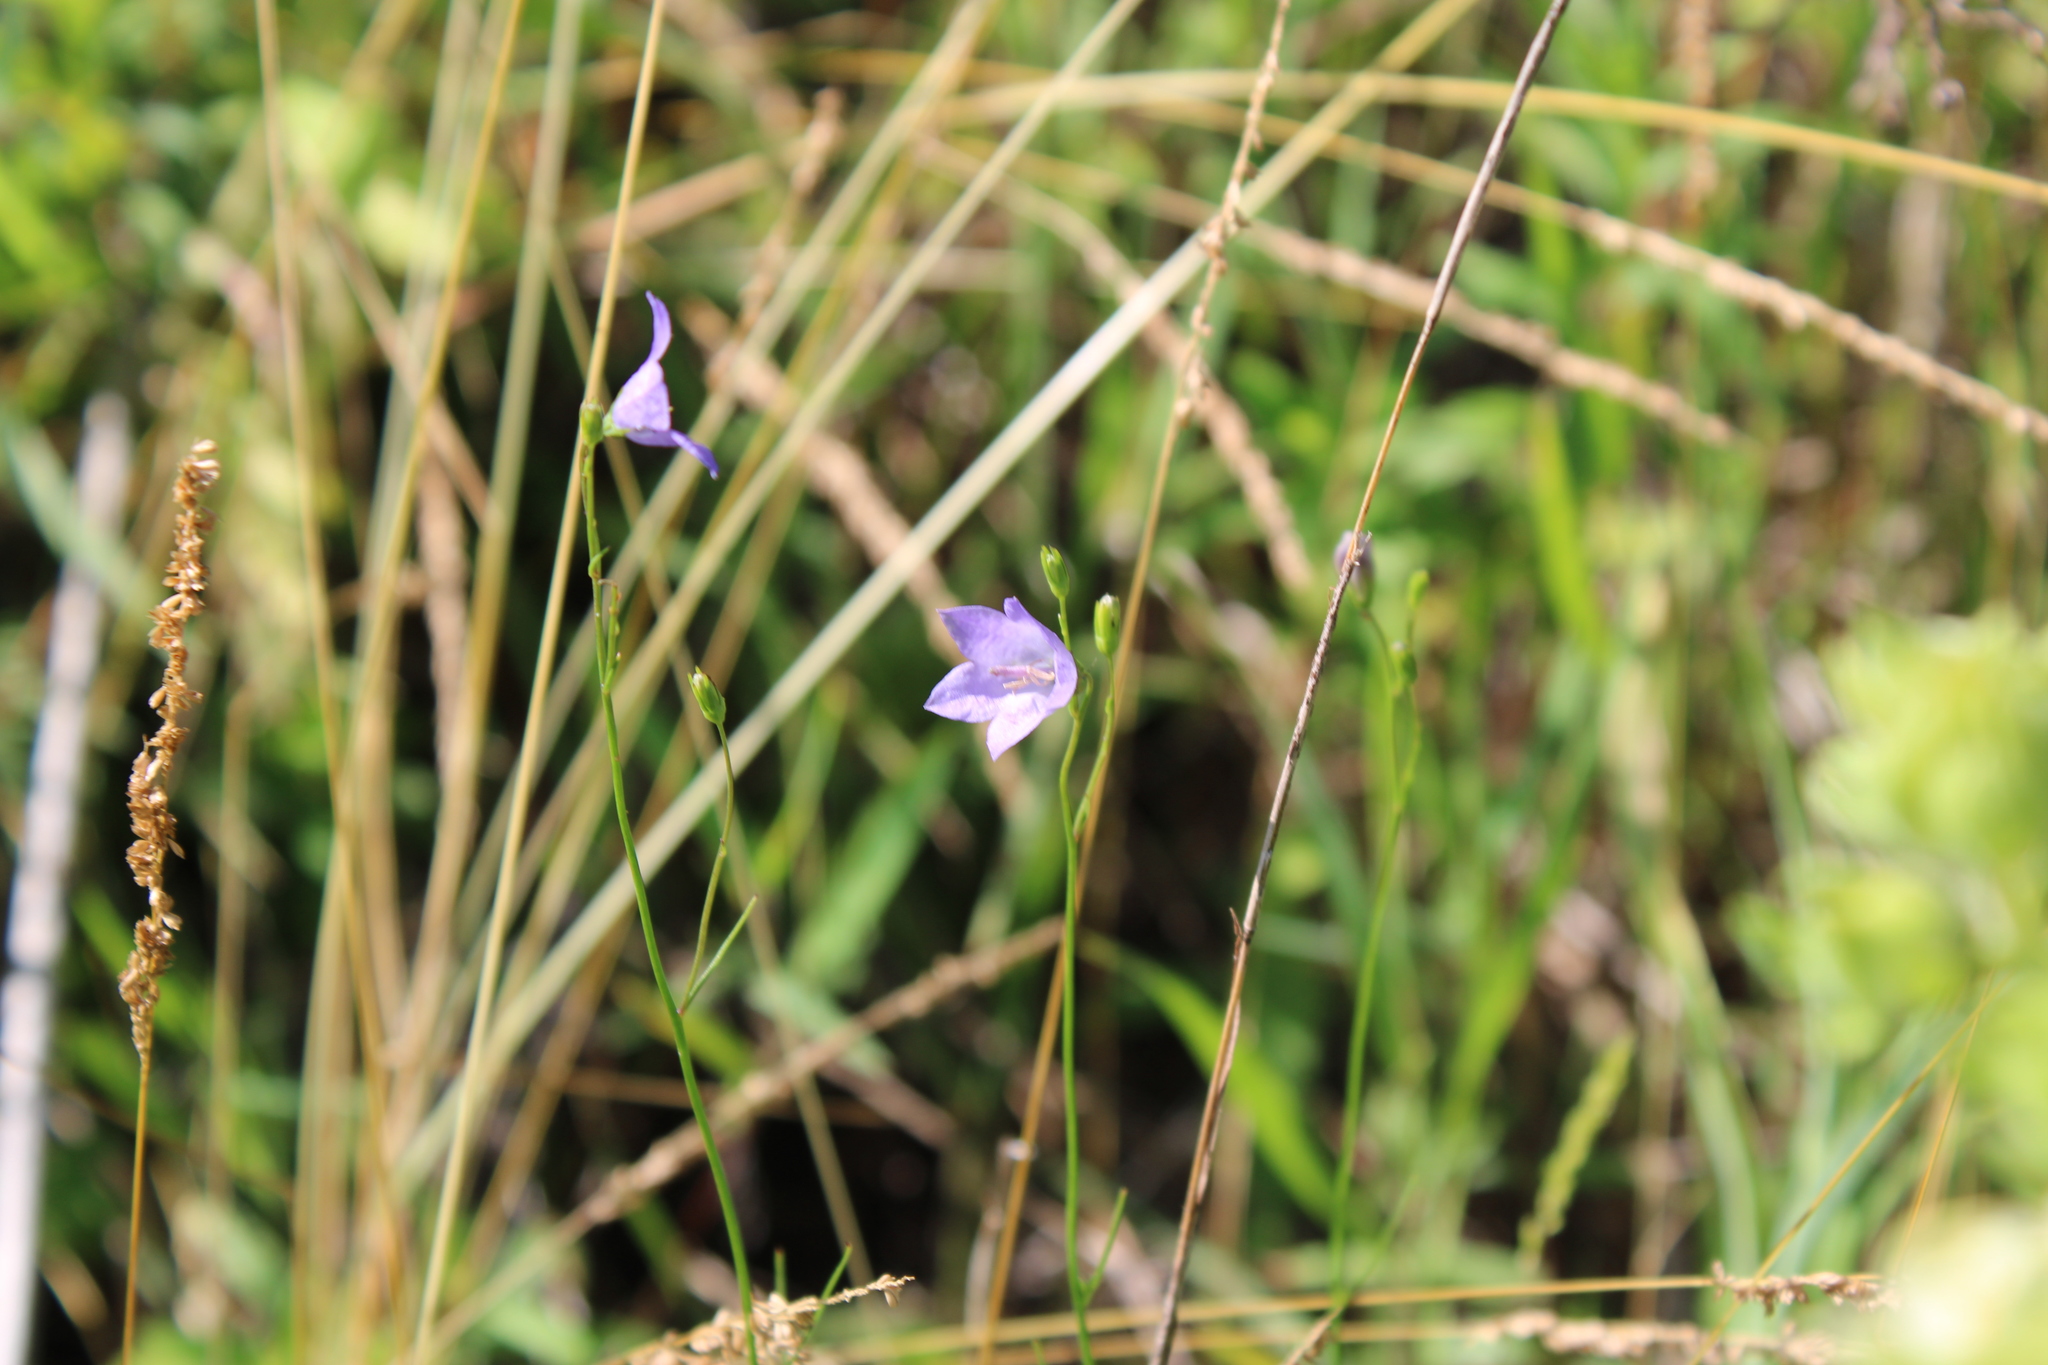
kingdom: Plantae
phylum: Tracheophyta
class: Magnoliopsida
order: Asterales
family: Campanulaceae
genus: Campanula
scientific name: Campanula intercedens
